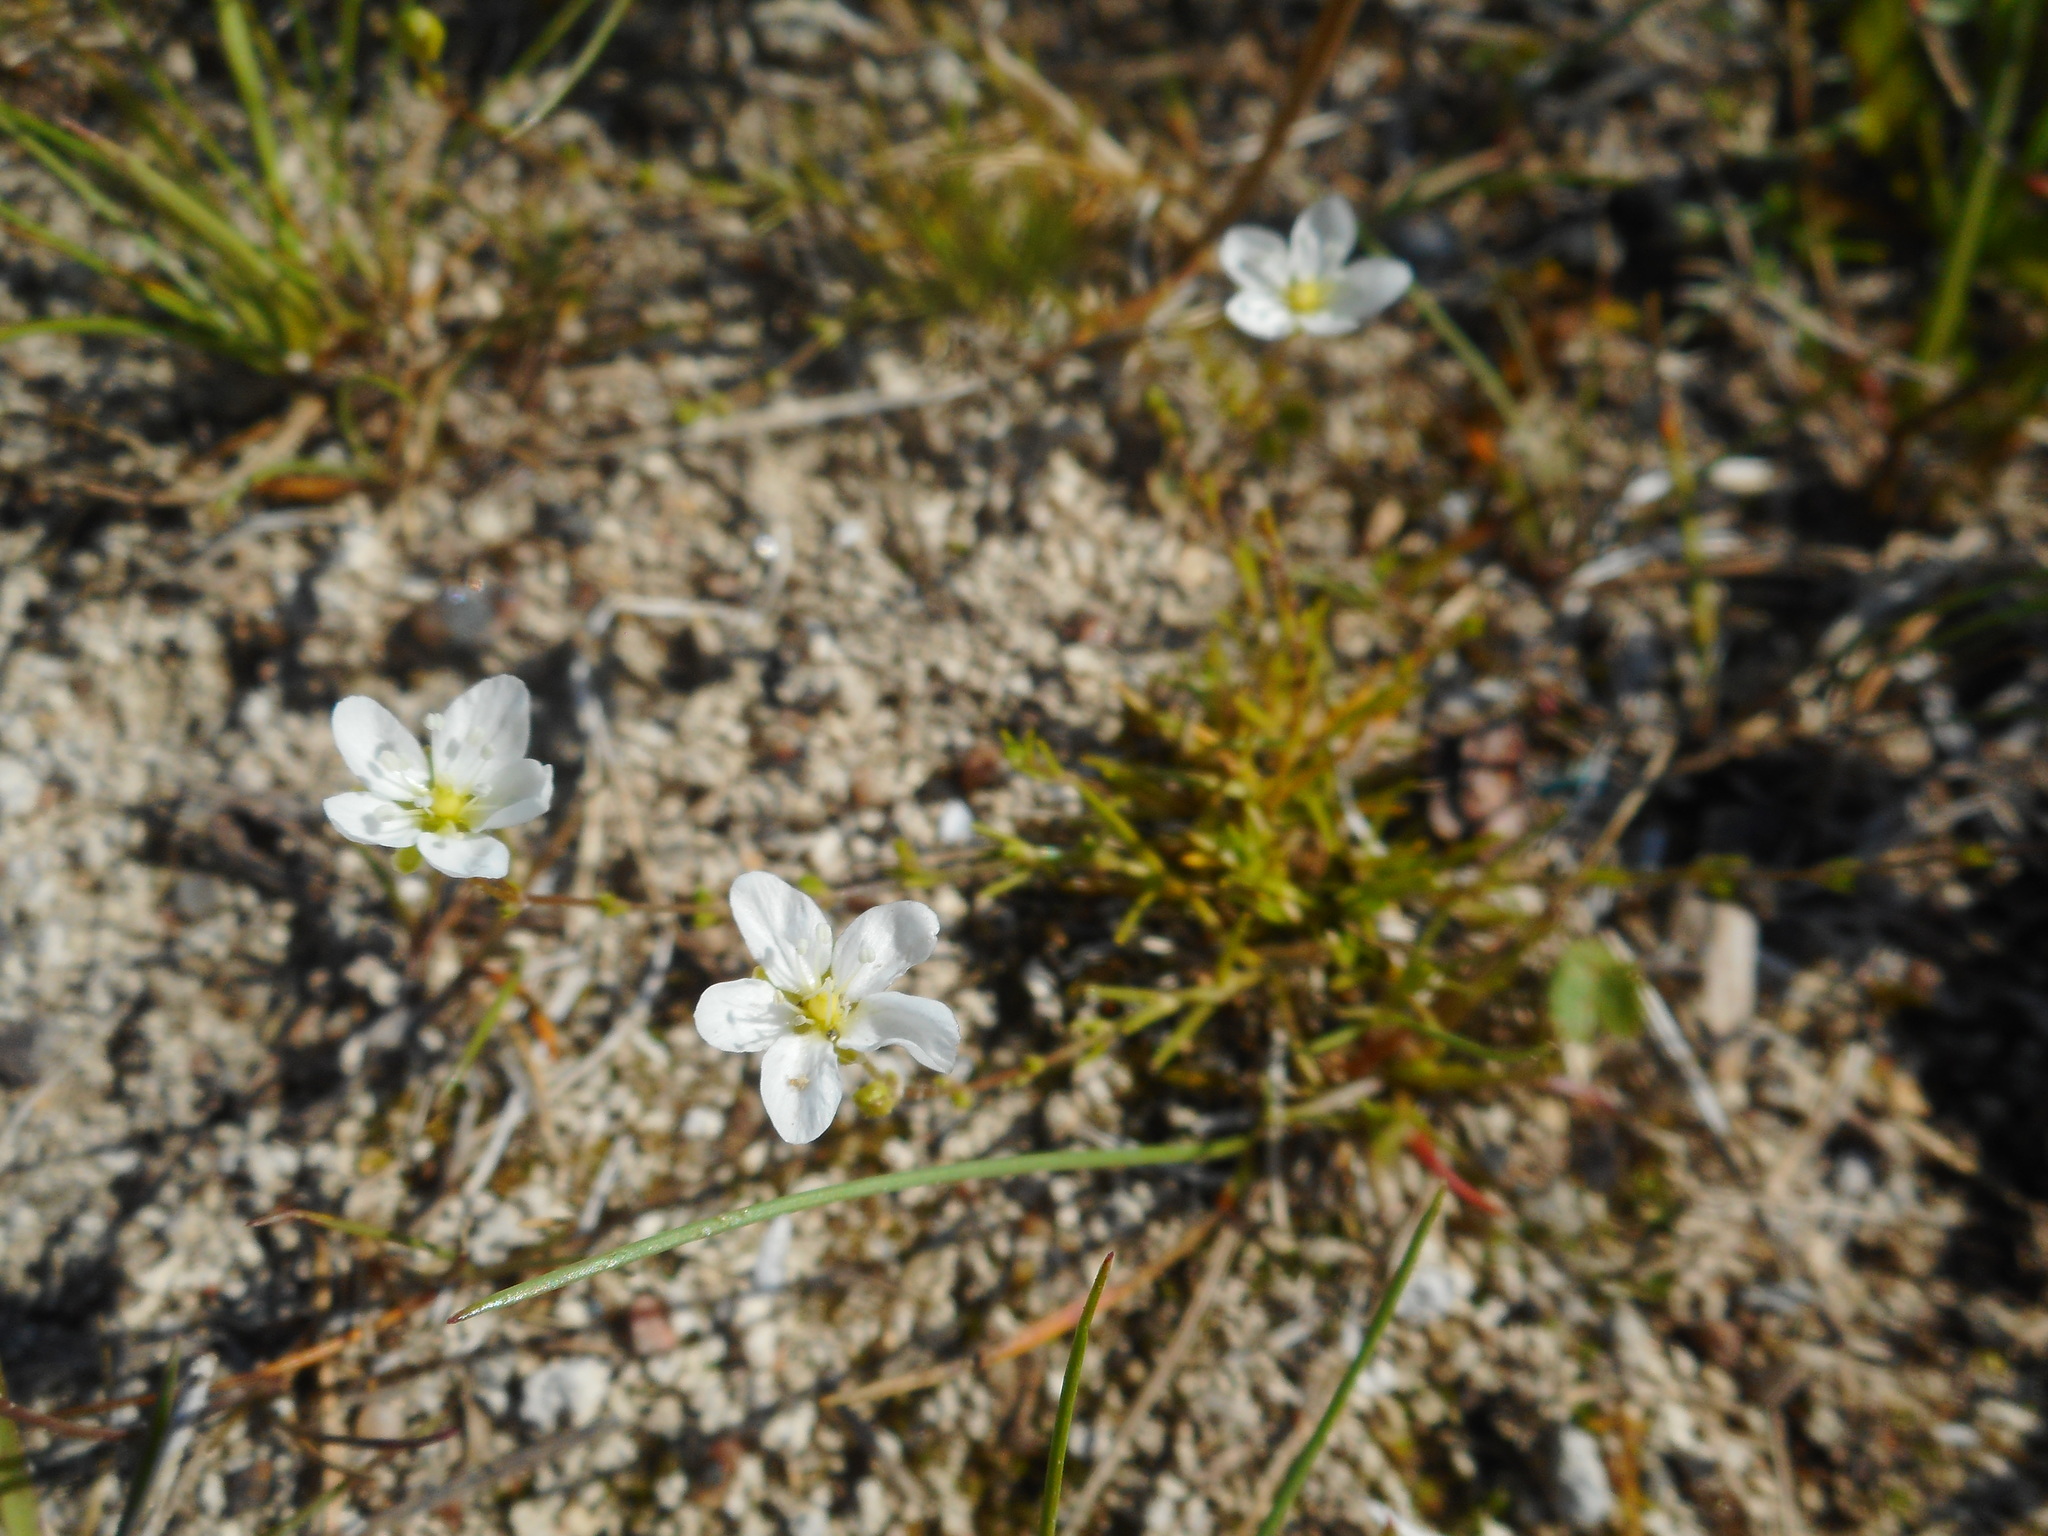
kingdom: Plantae
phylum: Tracheophyta
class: Magnoliopsida
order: Caryophyllales
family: Caryophyllaceae
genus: Sagina
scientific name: Sagina nodosa
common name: Knotted pearlwort
